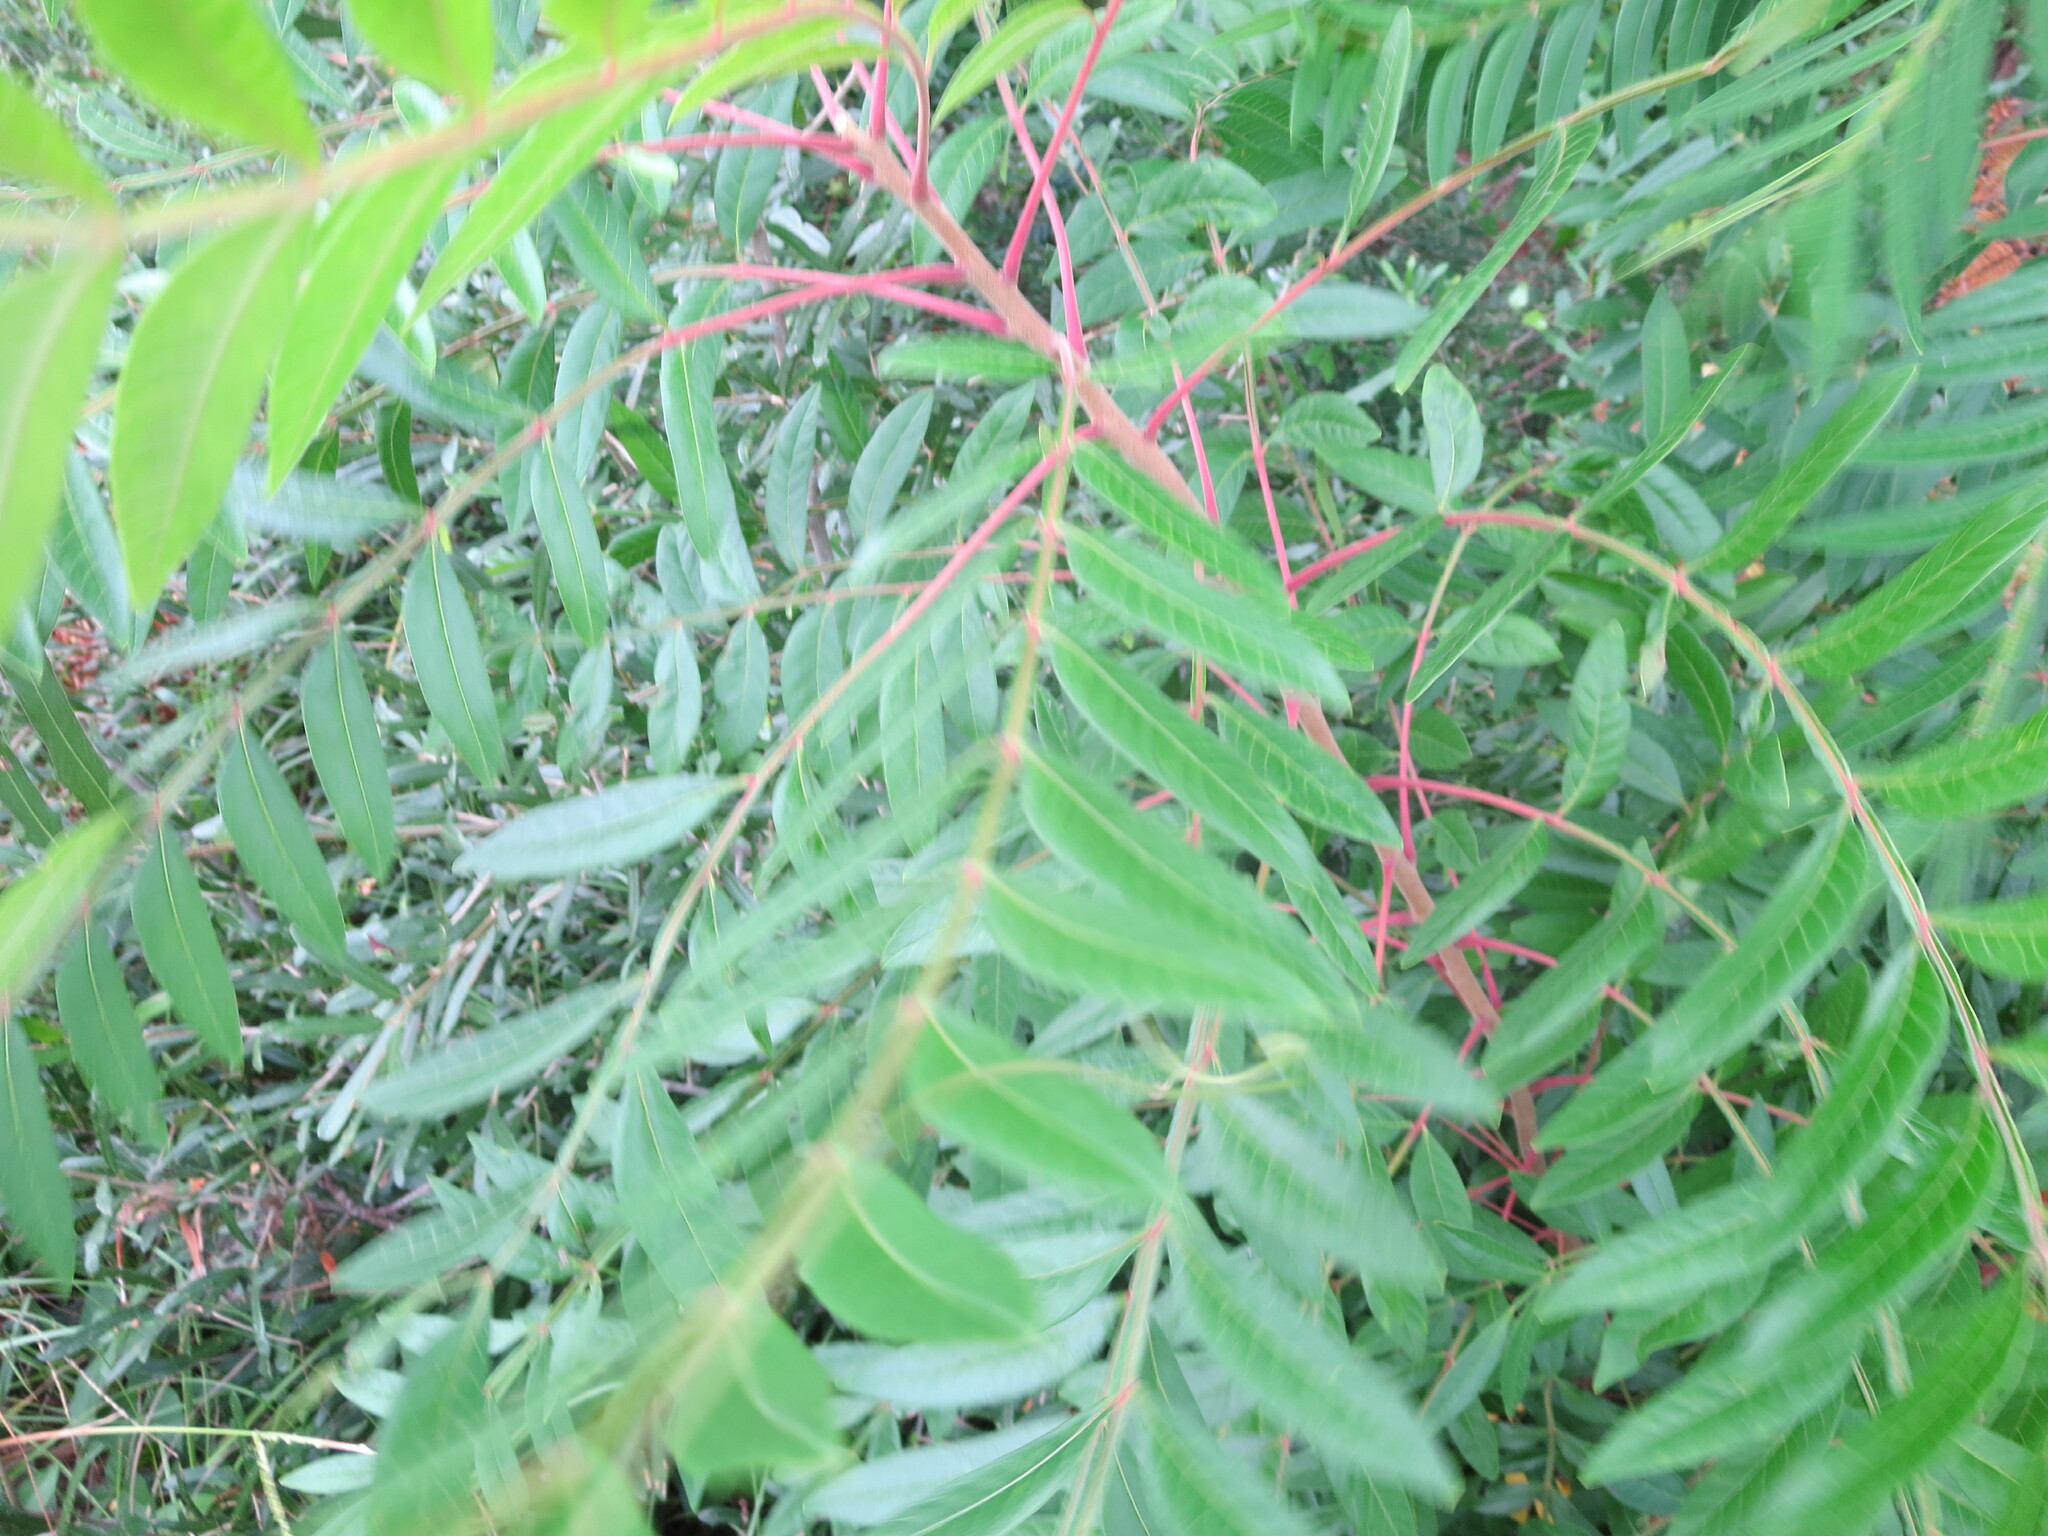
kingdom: Plantae
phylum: Tracheophyta
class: Magnoliopsida
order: Sapindales
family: Anacardiaceae
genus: Rhus
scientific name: Rhus copallina
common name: Shining sumac
